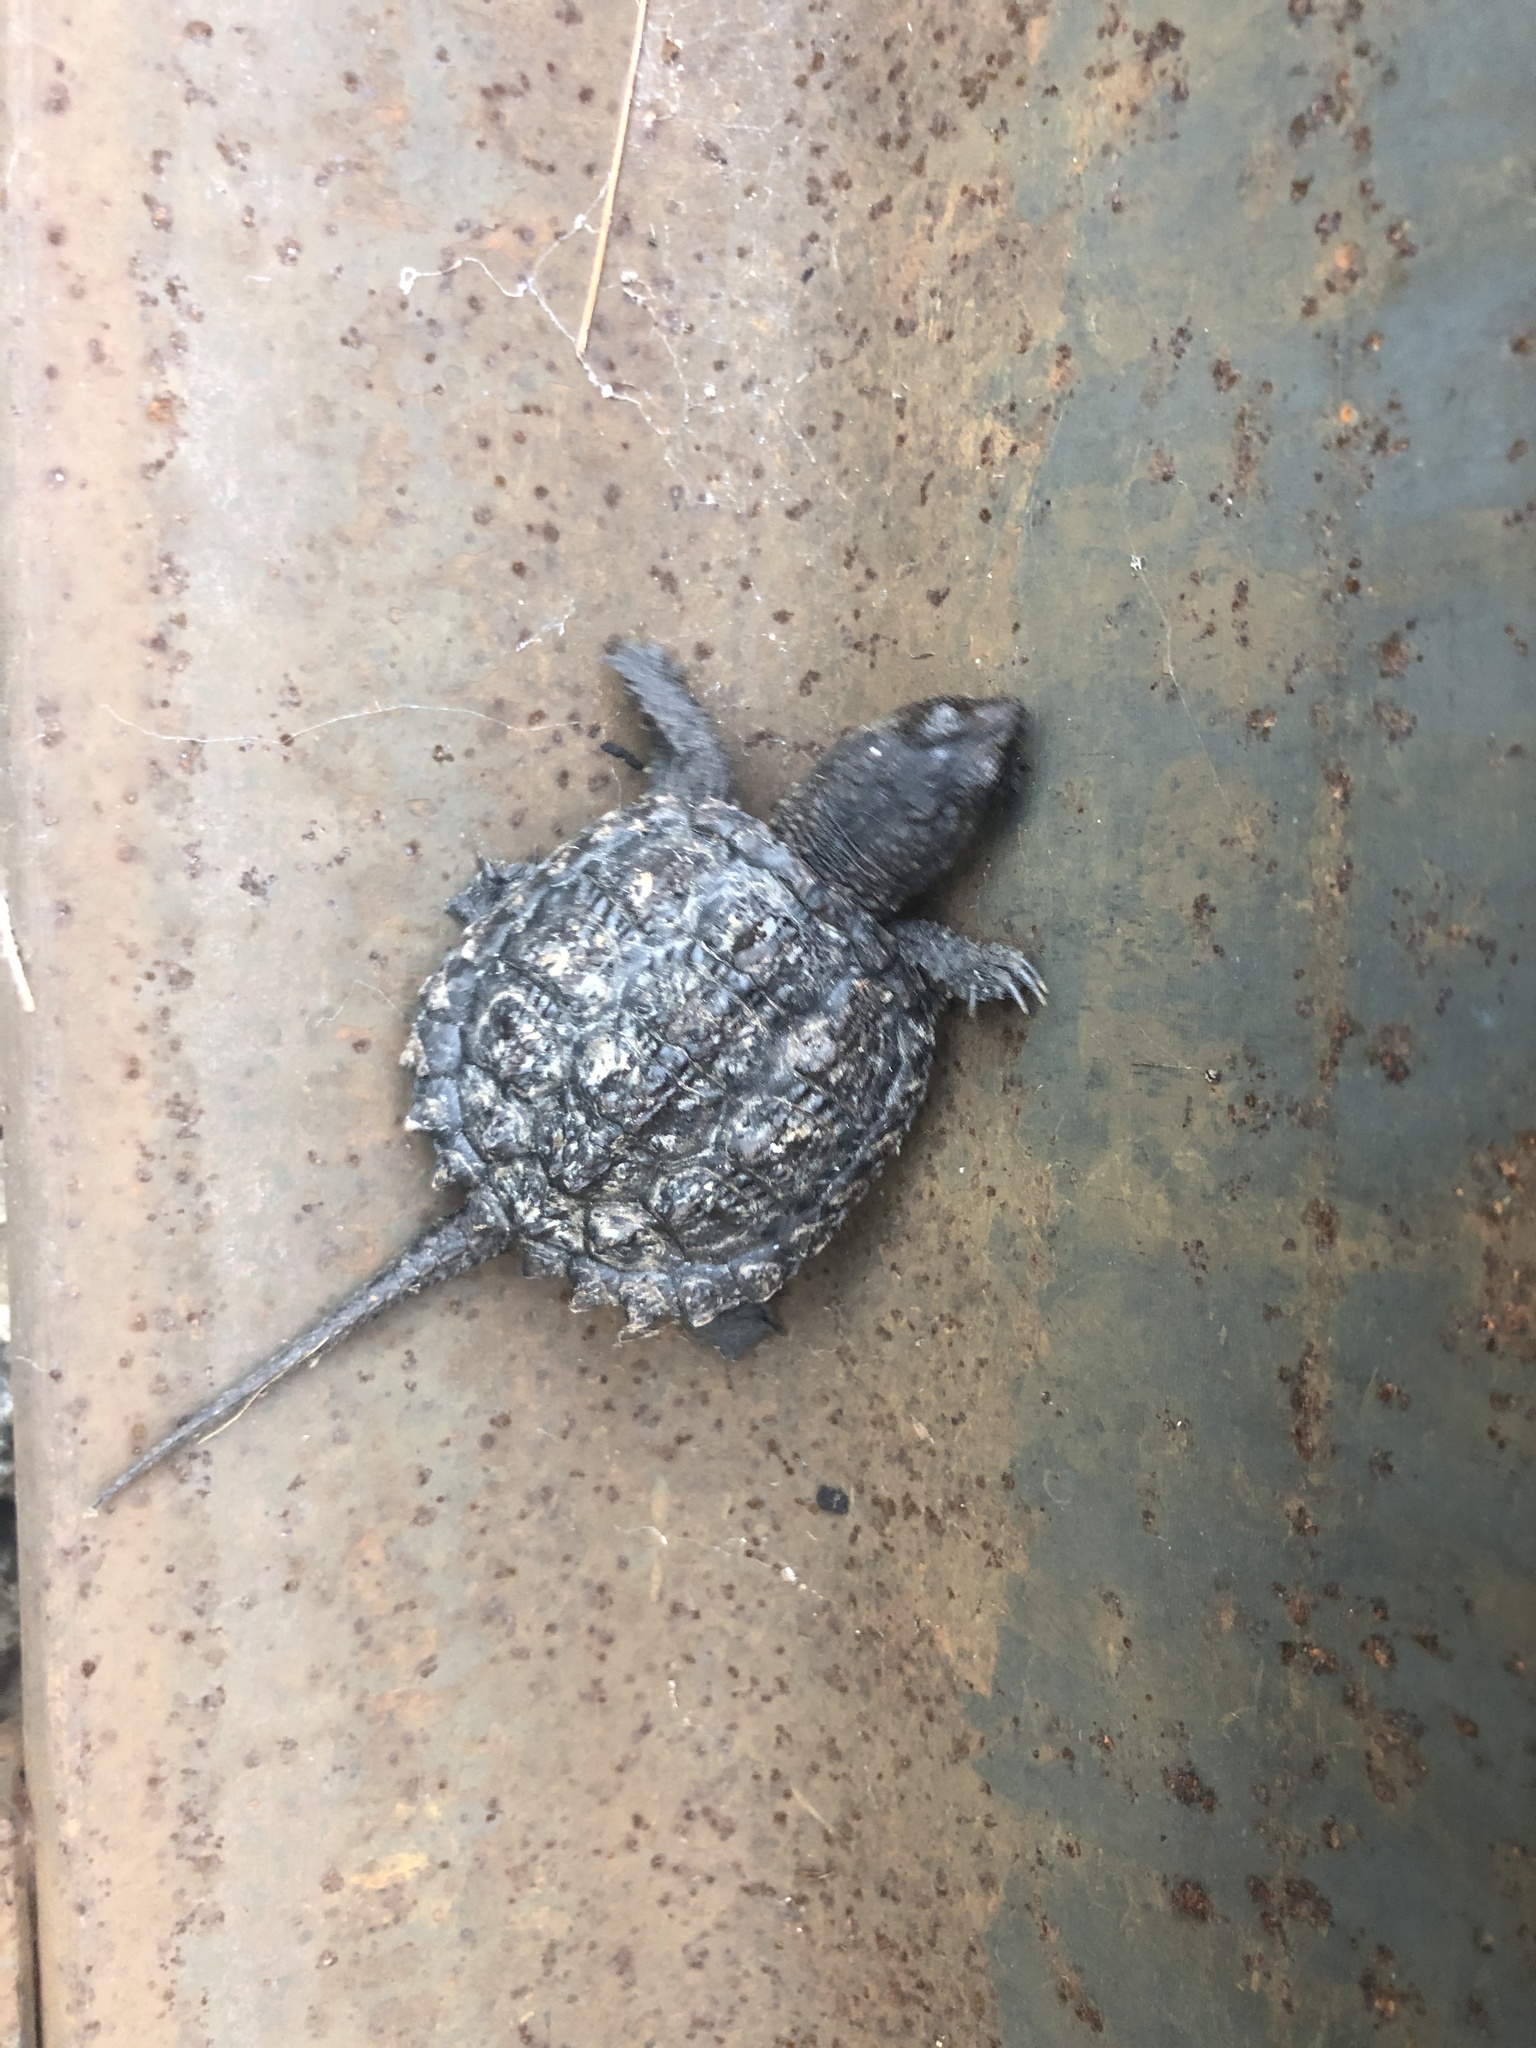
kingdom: Animalia
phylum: Chordata
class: Testudines
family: Chelydridae
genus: Chelydra
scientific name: Chelydra serpentina
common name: Common snapping turtle
